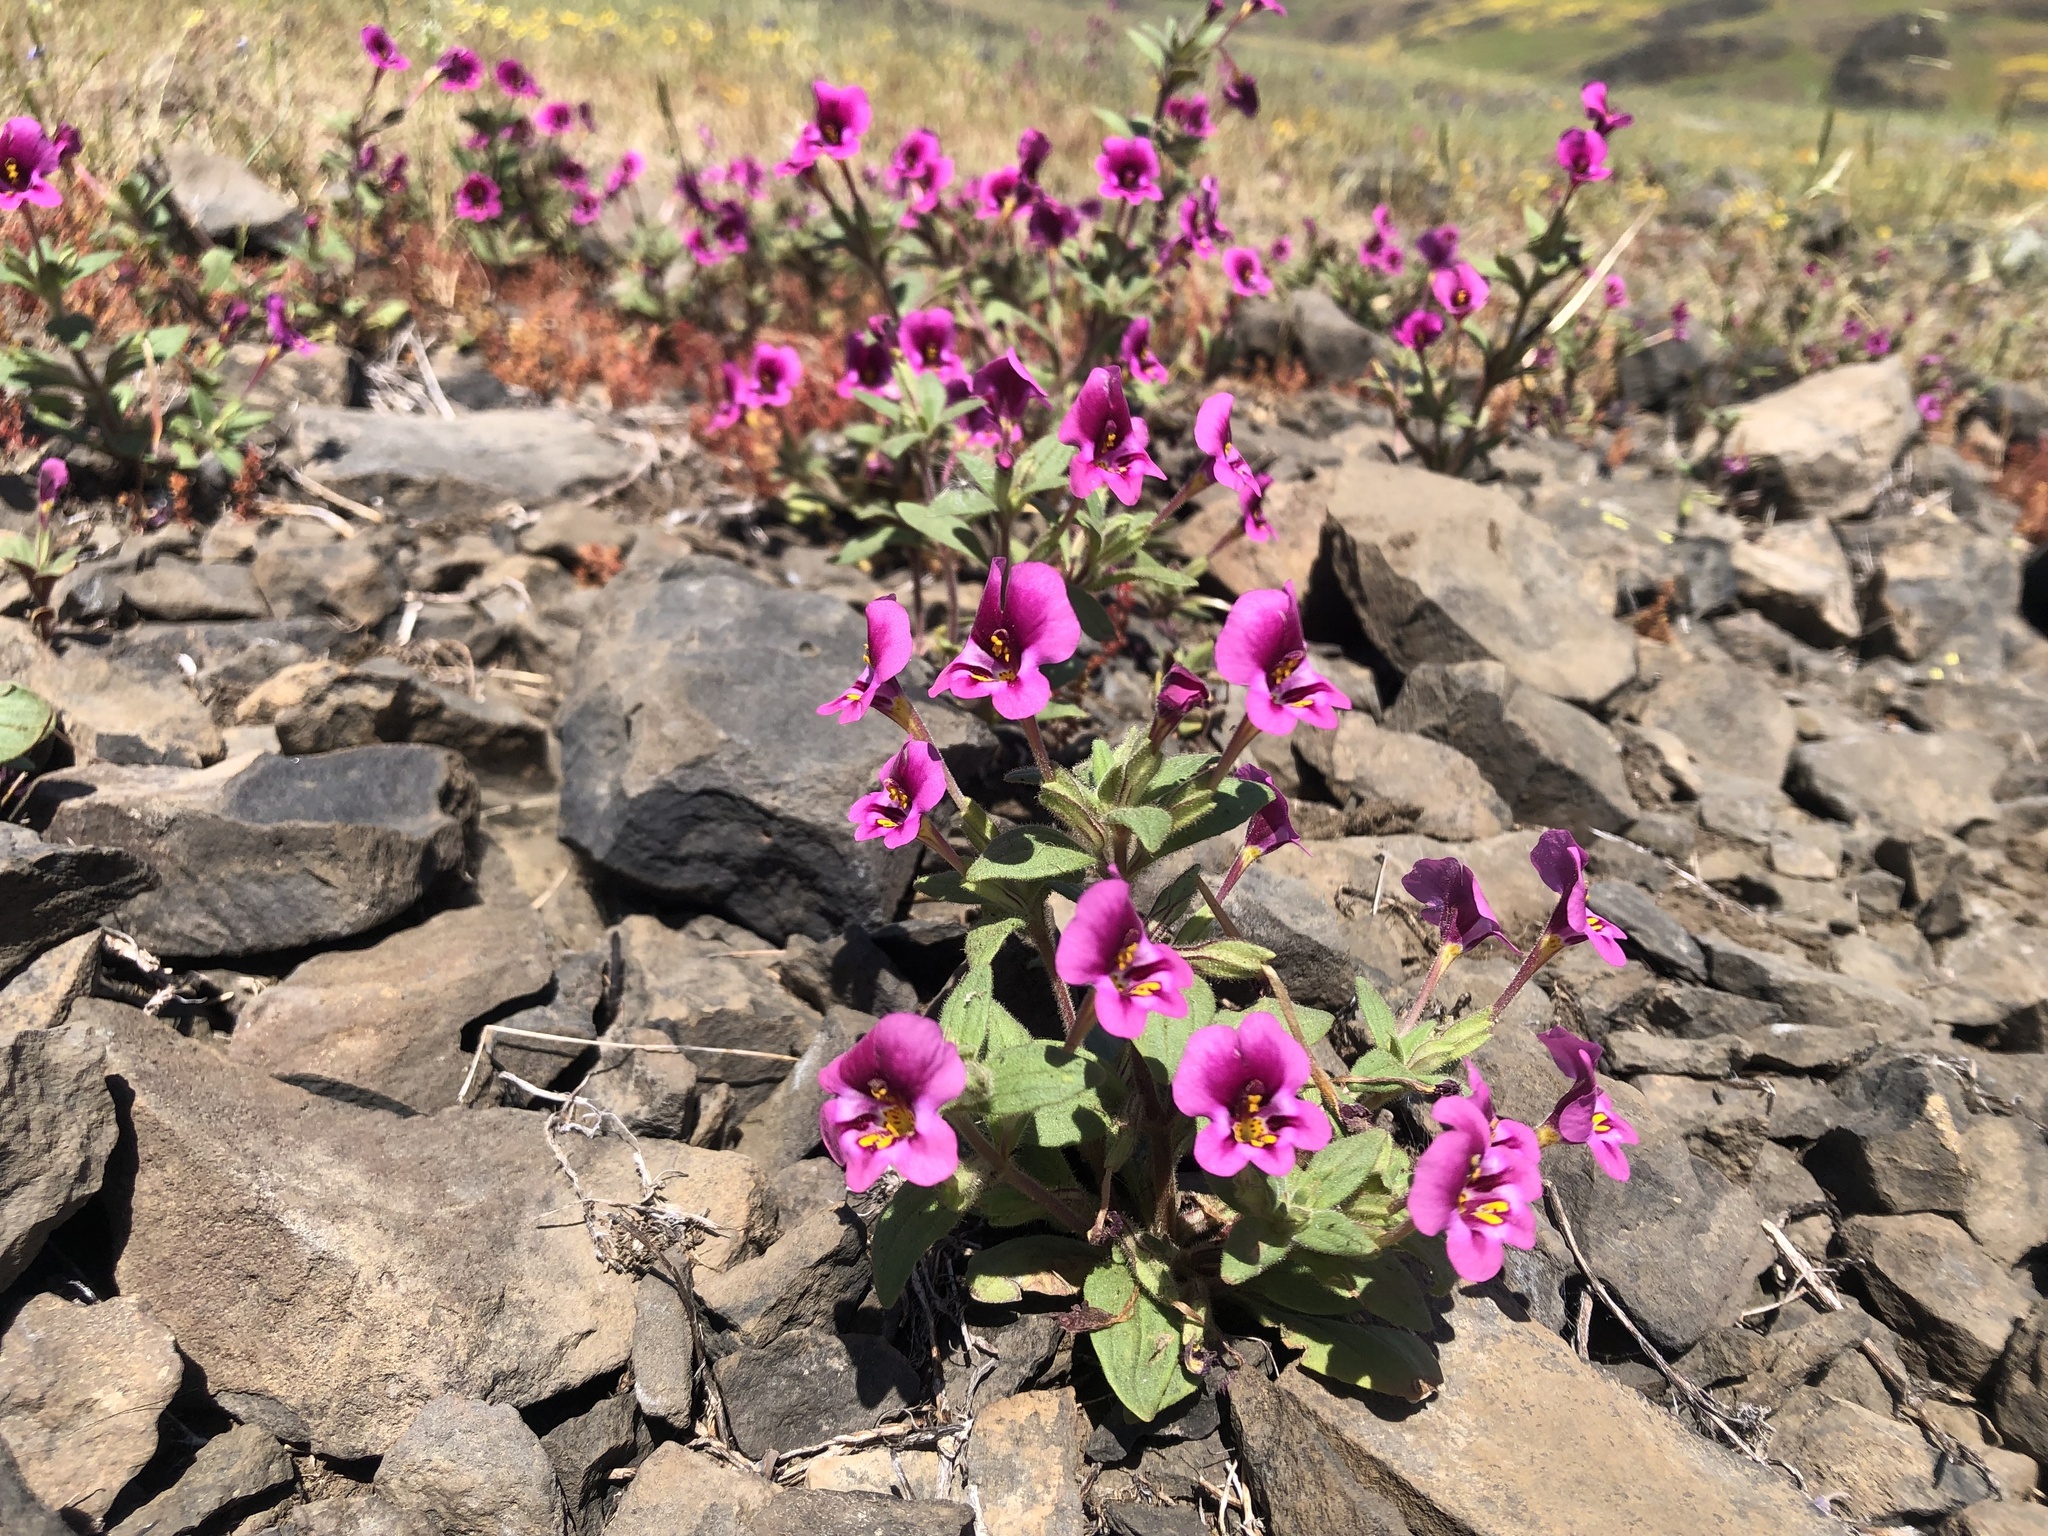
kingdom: Plantae
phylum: Tracheophyta
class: Magnoliopsida
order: Lamiales
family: Phrymaceae
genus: Diplacus
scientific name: Diplacus kelloggii
